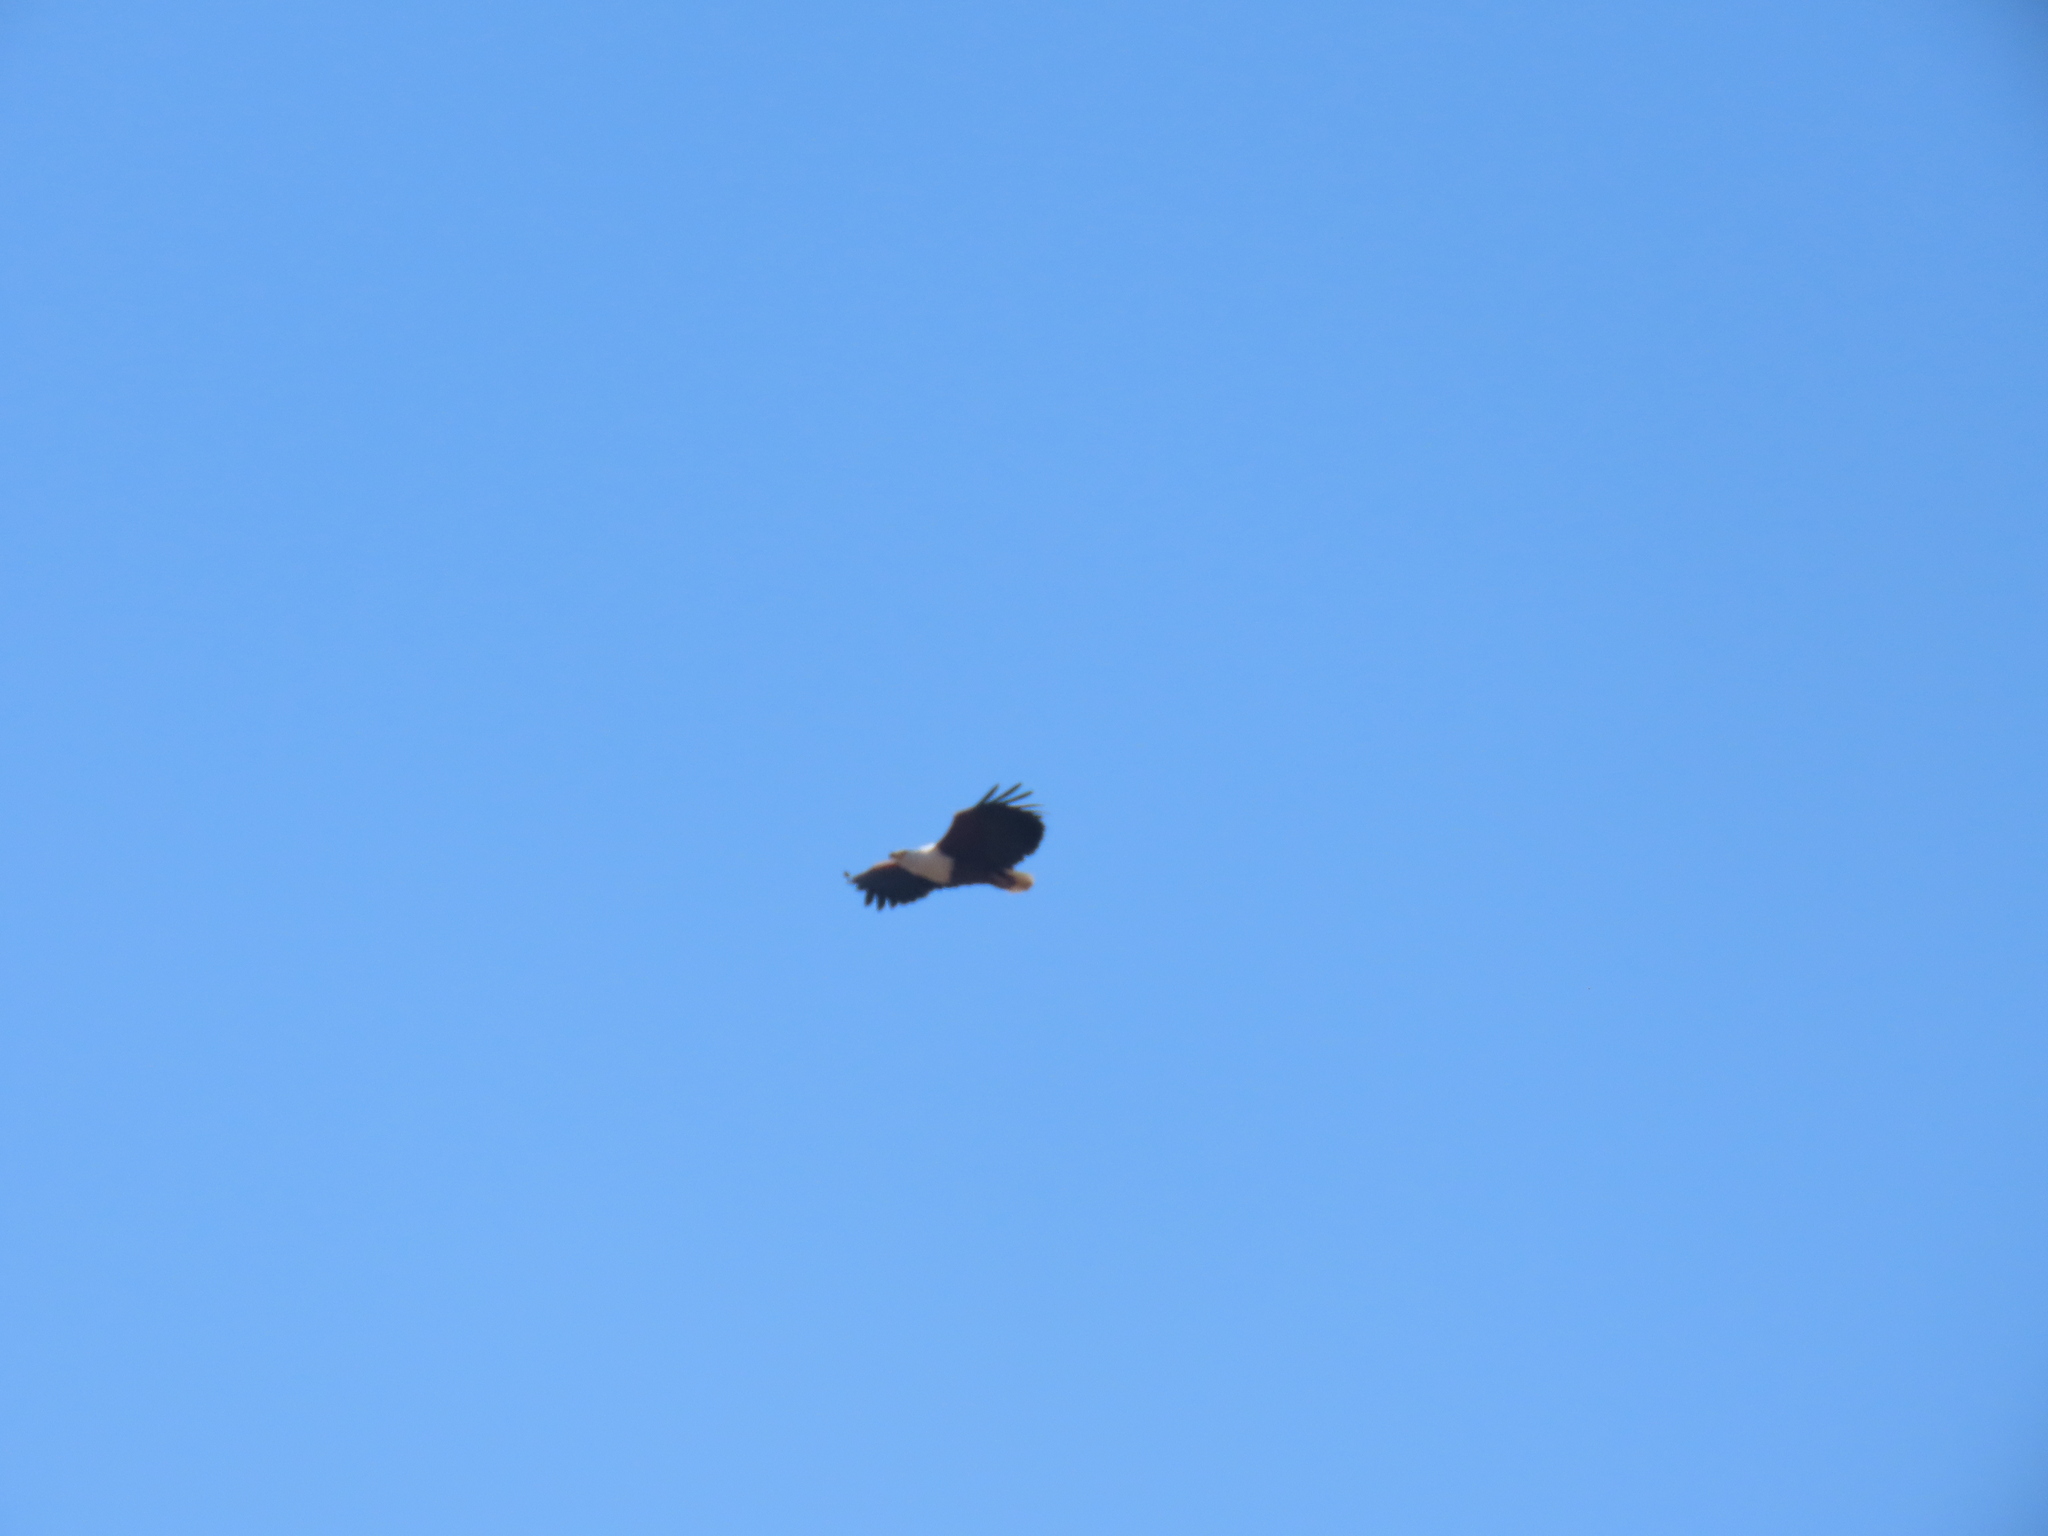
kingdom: Animalia
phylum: Chordata
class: Aves
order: Accipitriformes
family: Accipitridae
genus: Haliaeetus
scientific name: Haliaeetus vocifer
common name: African fish eagle
